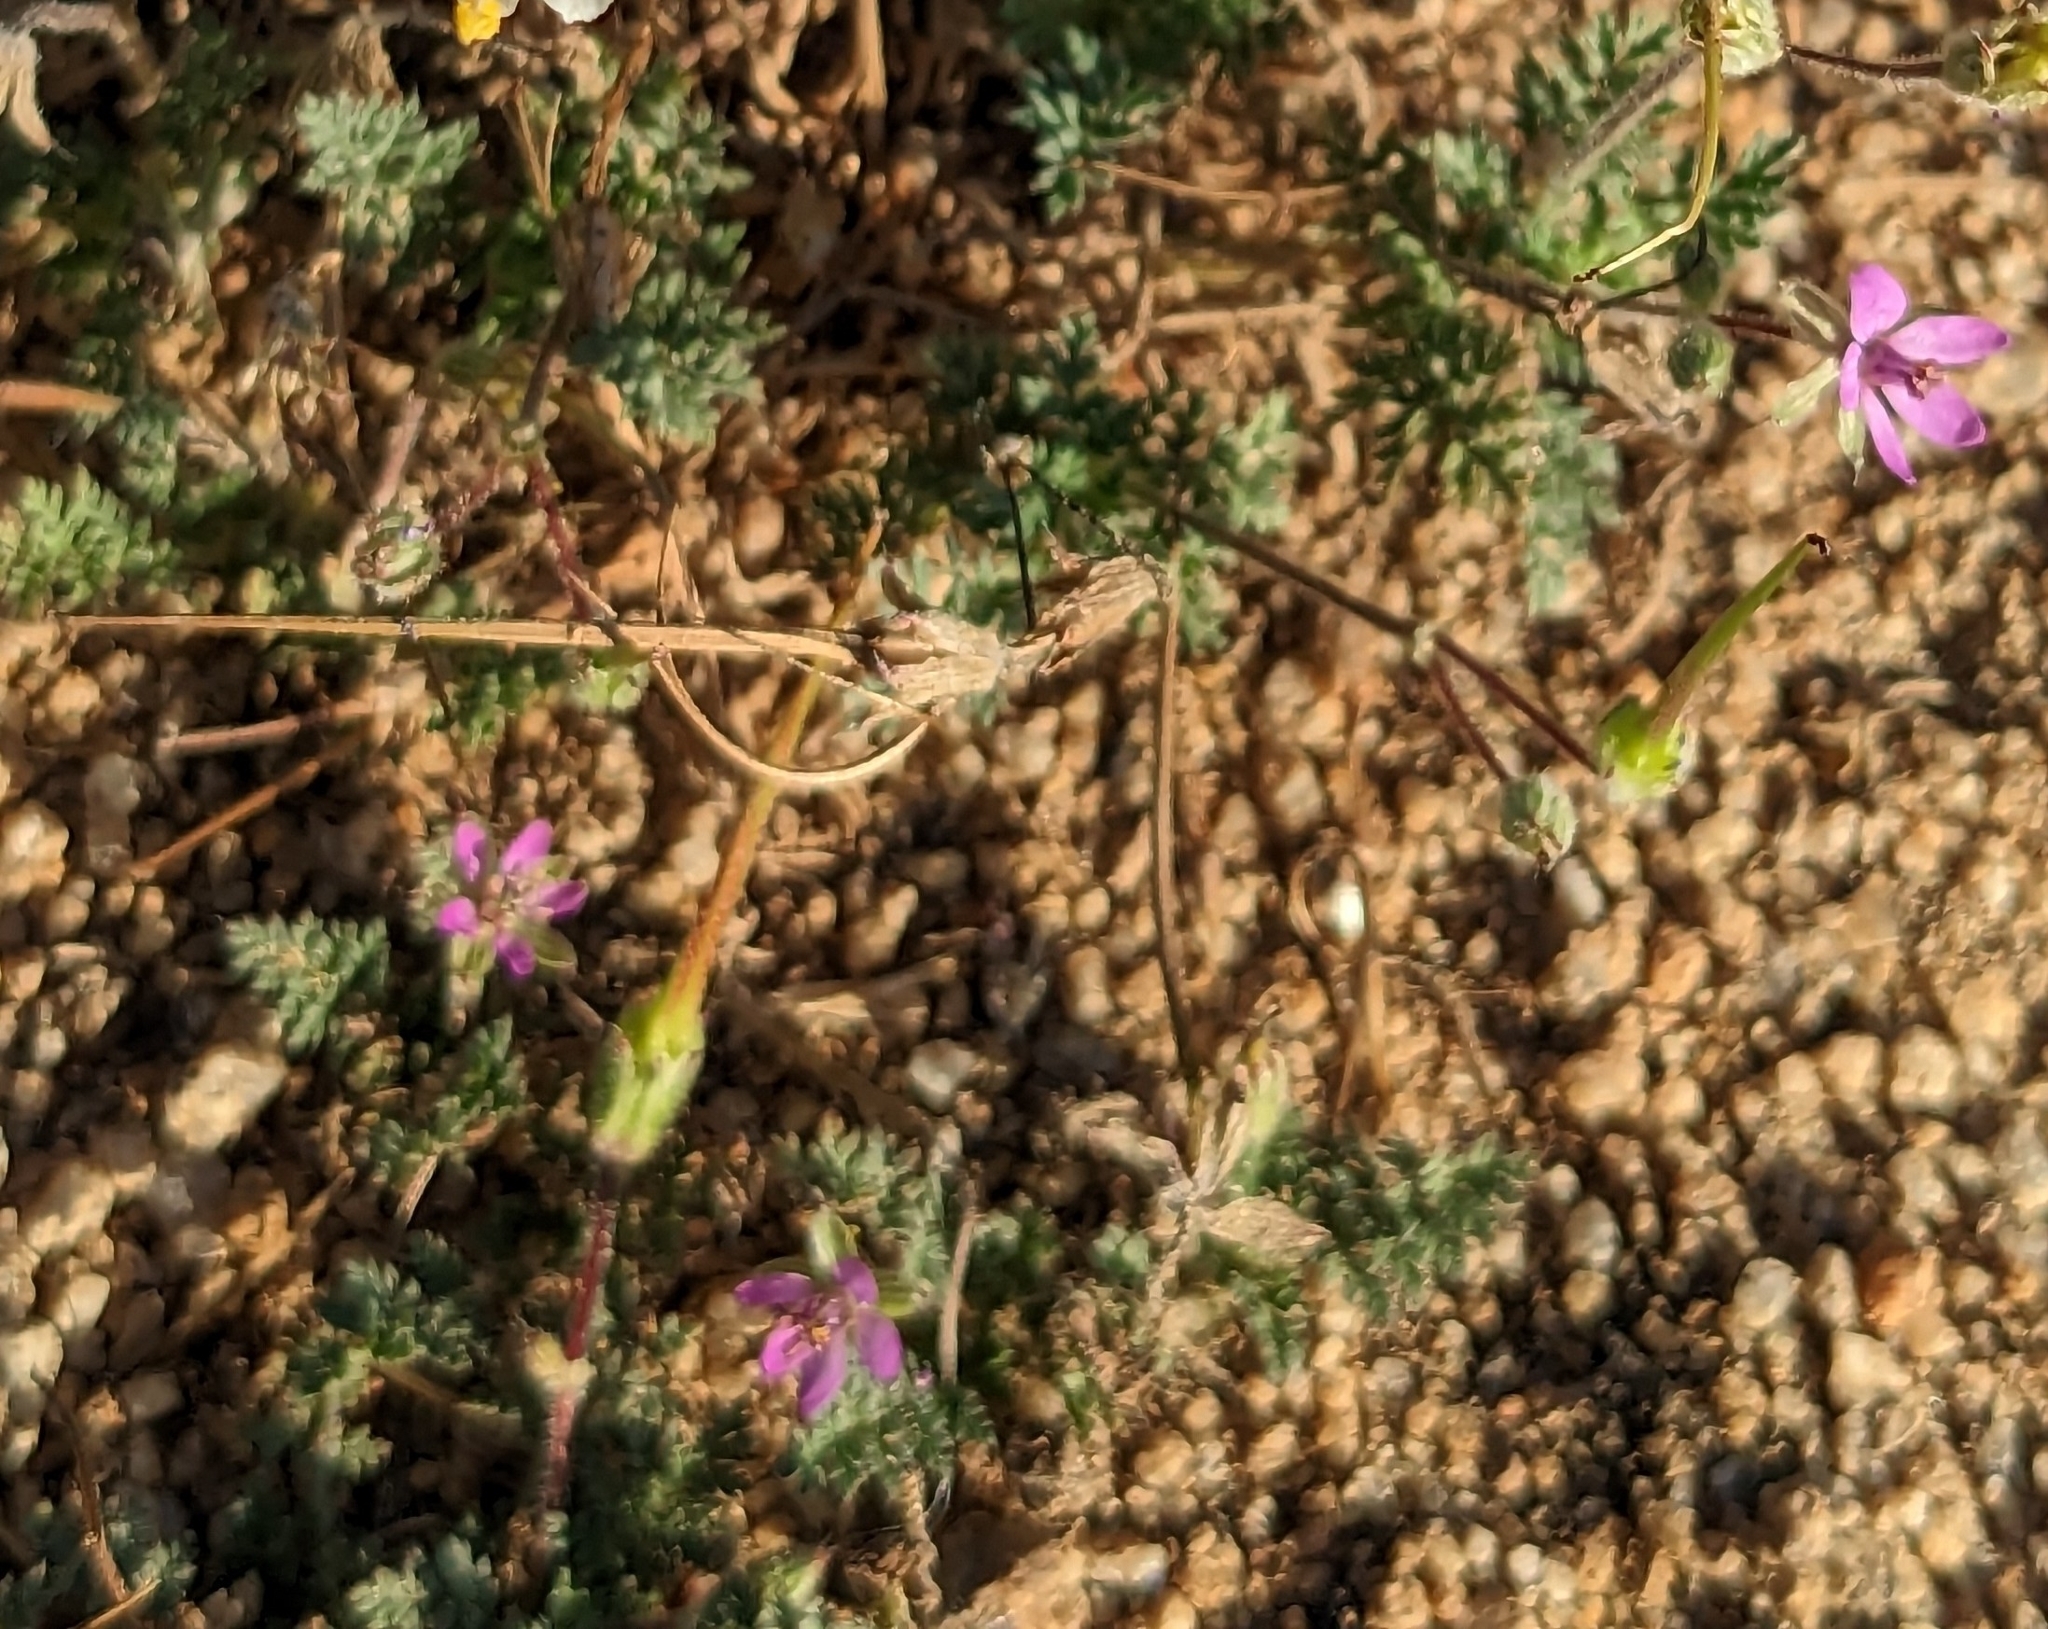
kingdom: Plantae
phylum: Tracheophyta
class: Magnoliopsida
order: Geraniales
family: Geraniaceae
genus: Erodium
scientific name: Erodium cicutarium
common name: Common stork's-bill
